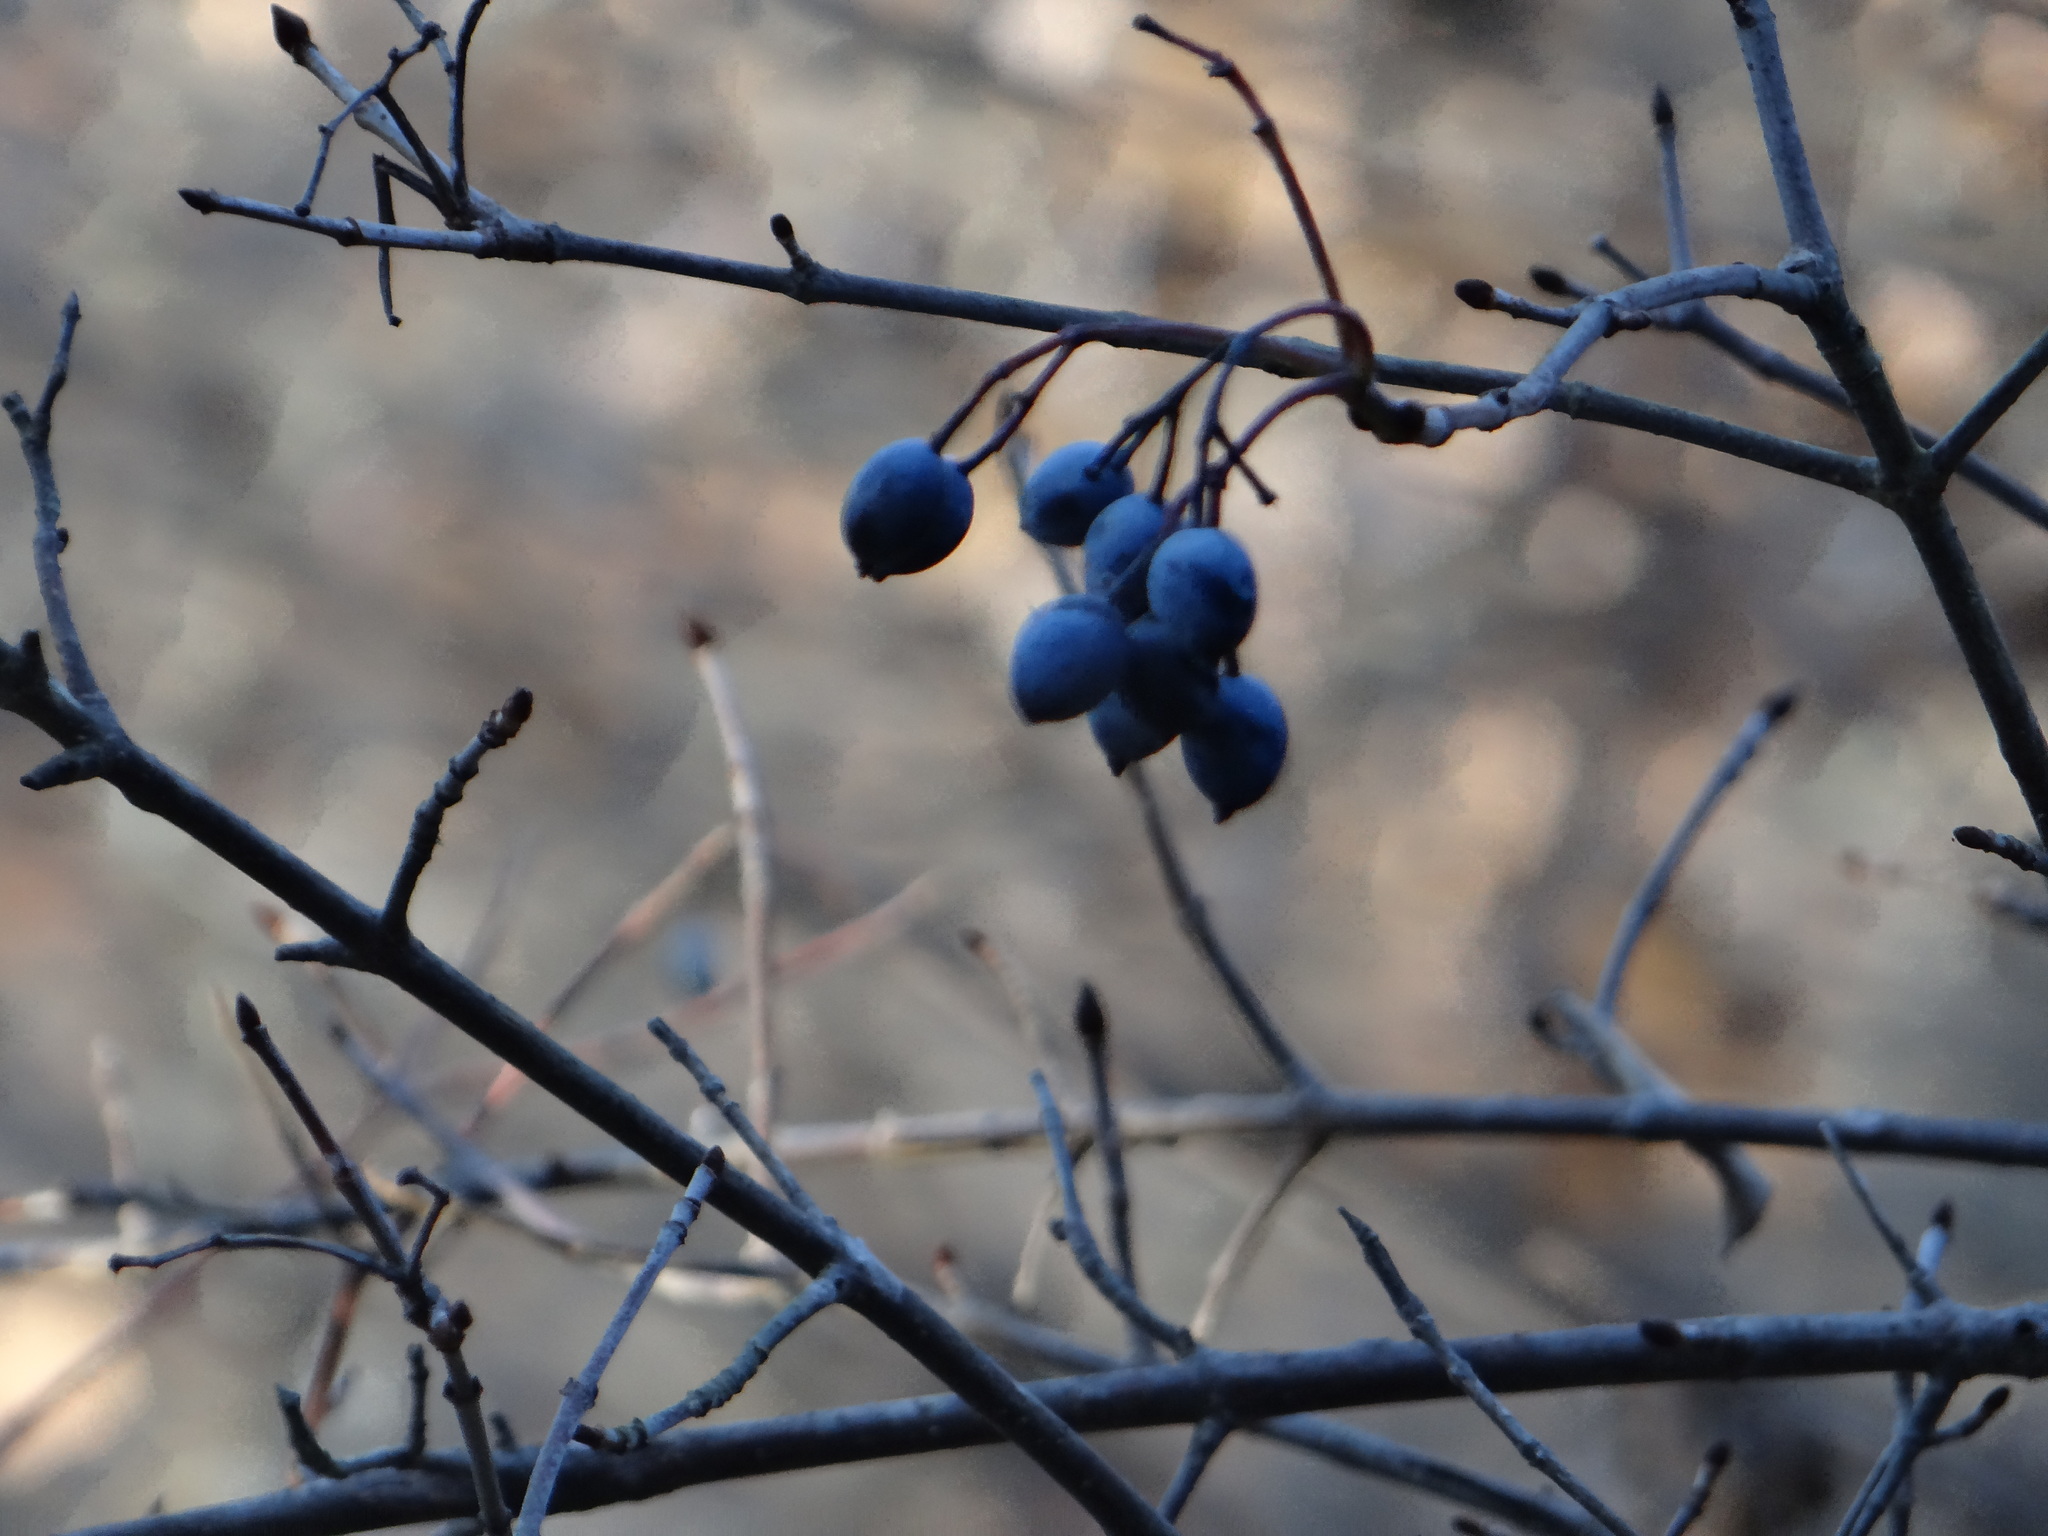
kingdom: Plantae
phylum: Tracheophyta
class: Magnoliopsida
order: Dipsacales
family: Viburnaceae
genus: Viburnum
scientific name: Viburnum rufidulum
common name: Blue haw
